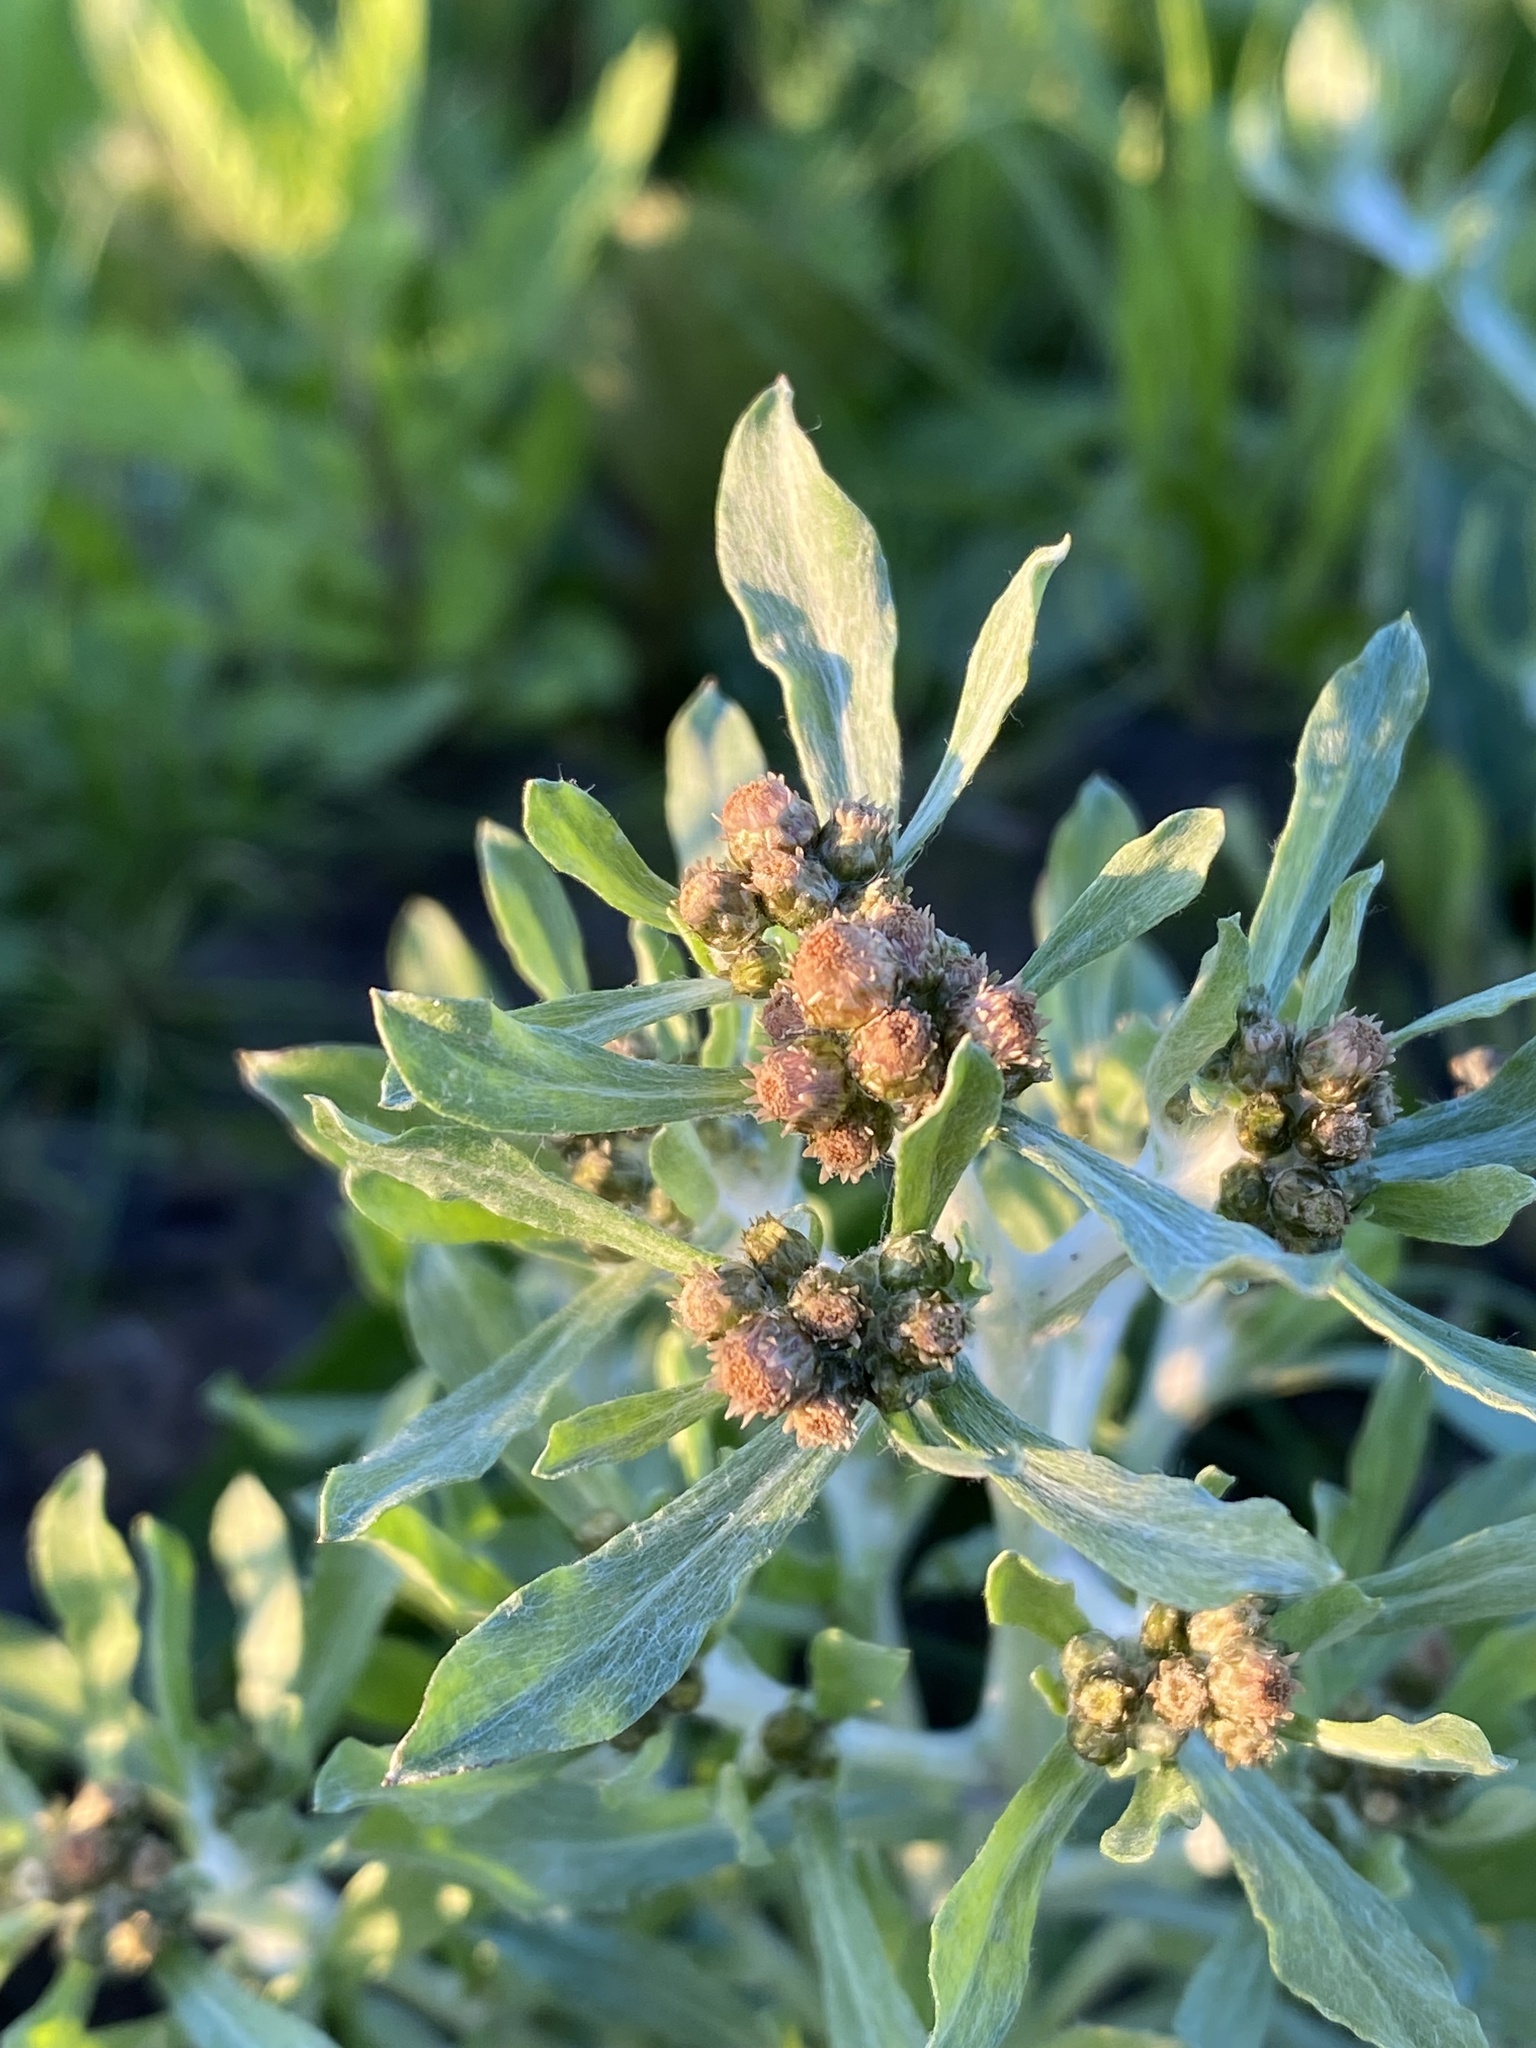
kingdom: Plantae
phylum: Tracheophyta
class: Magnoliopsida
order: Asterales
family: Asteraceae
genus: Gnaphalium
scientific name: Gnaphalium uliginosum
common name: Marsh cudweed
